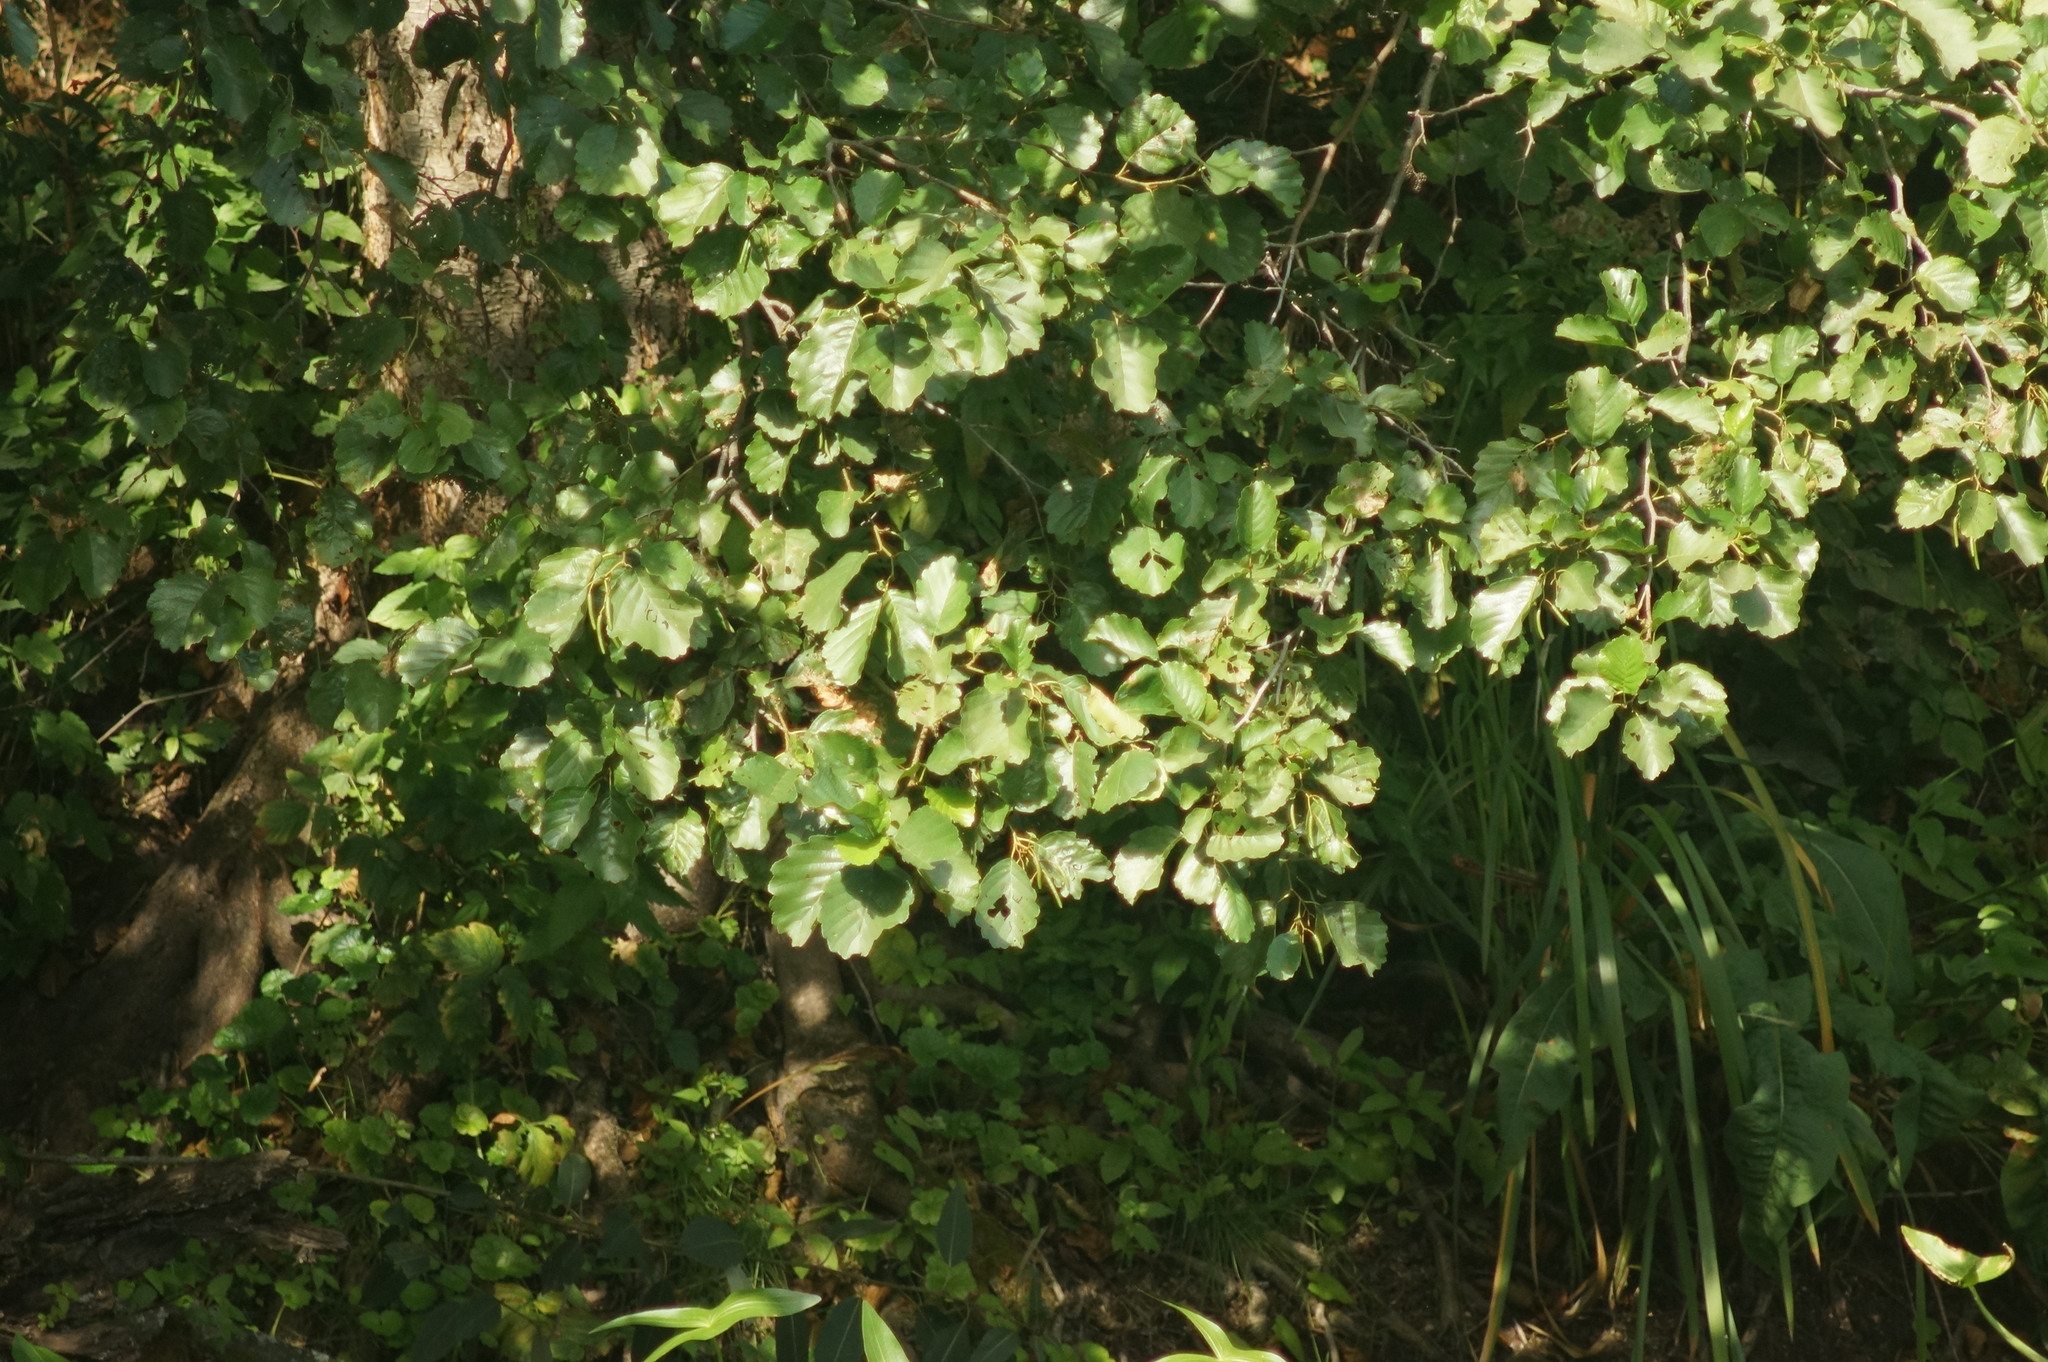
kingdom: Plantae
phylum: Tracheophyta
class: Magnoliopsida
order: Fagales
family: Betulaceae
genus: Alnus
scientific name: Alnus glutinosa
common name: Black alder
